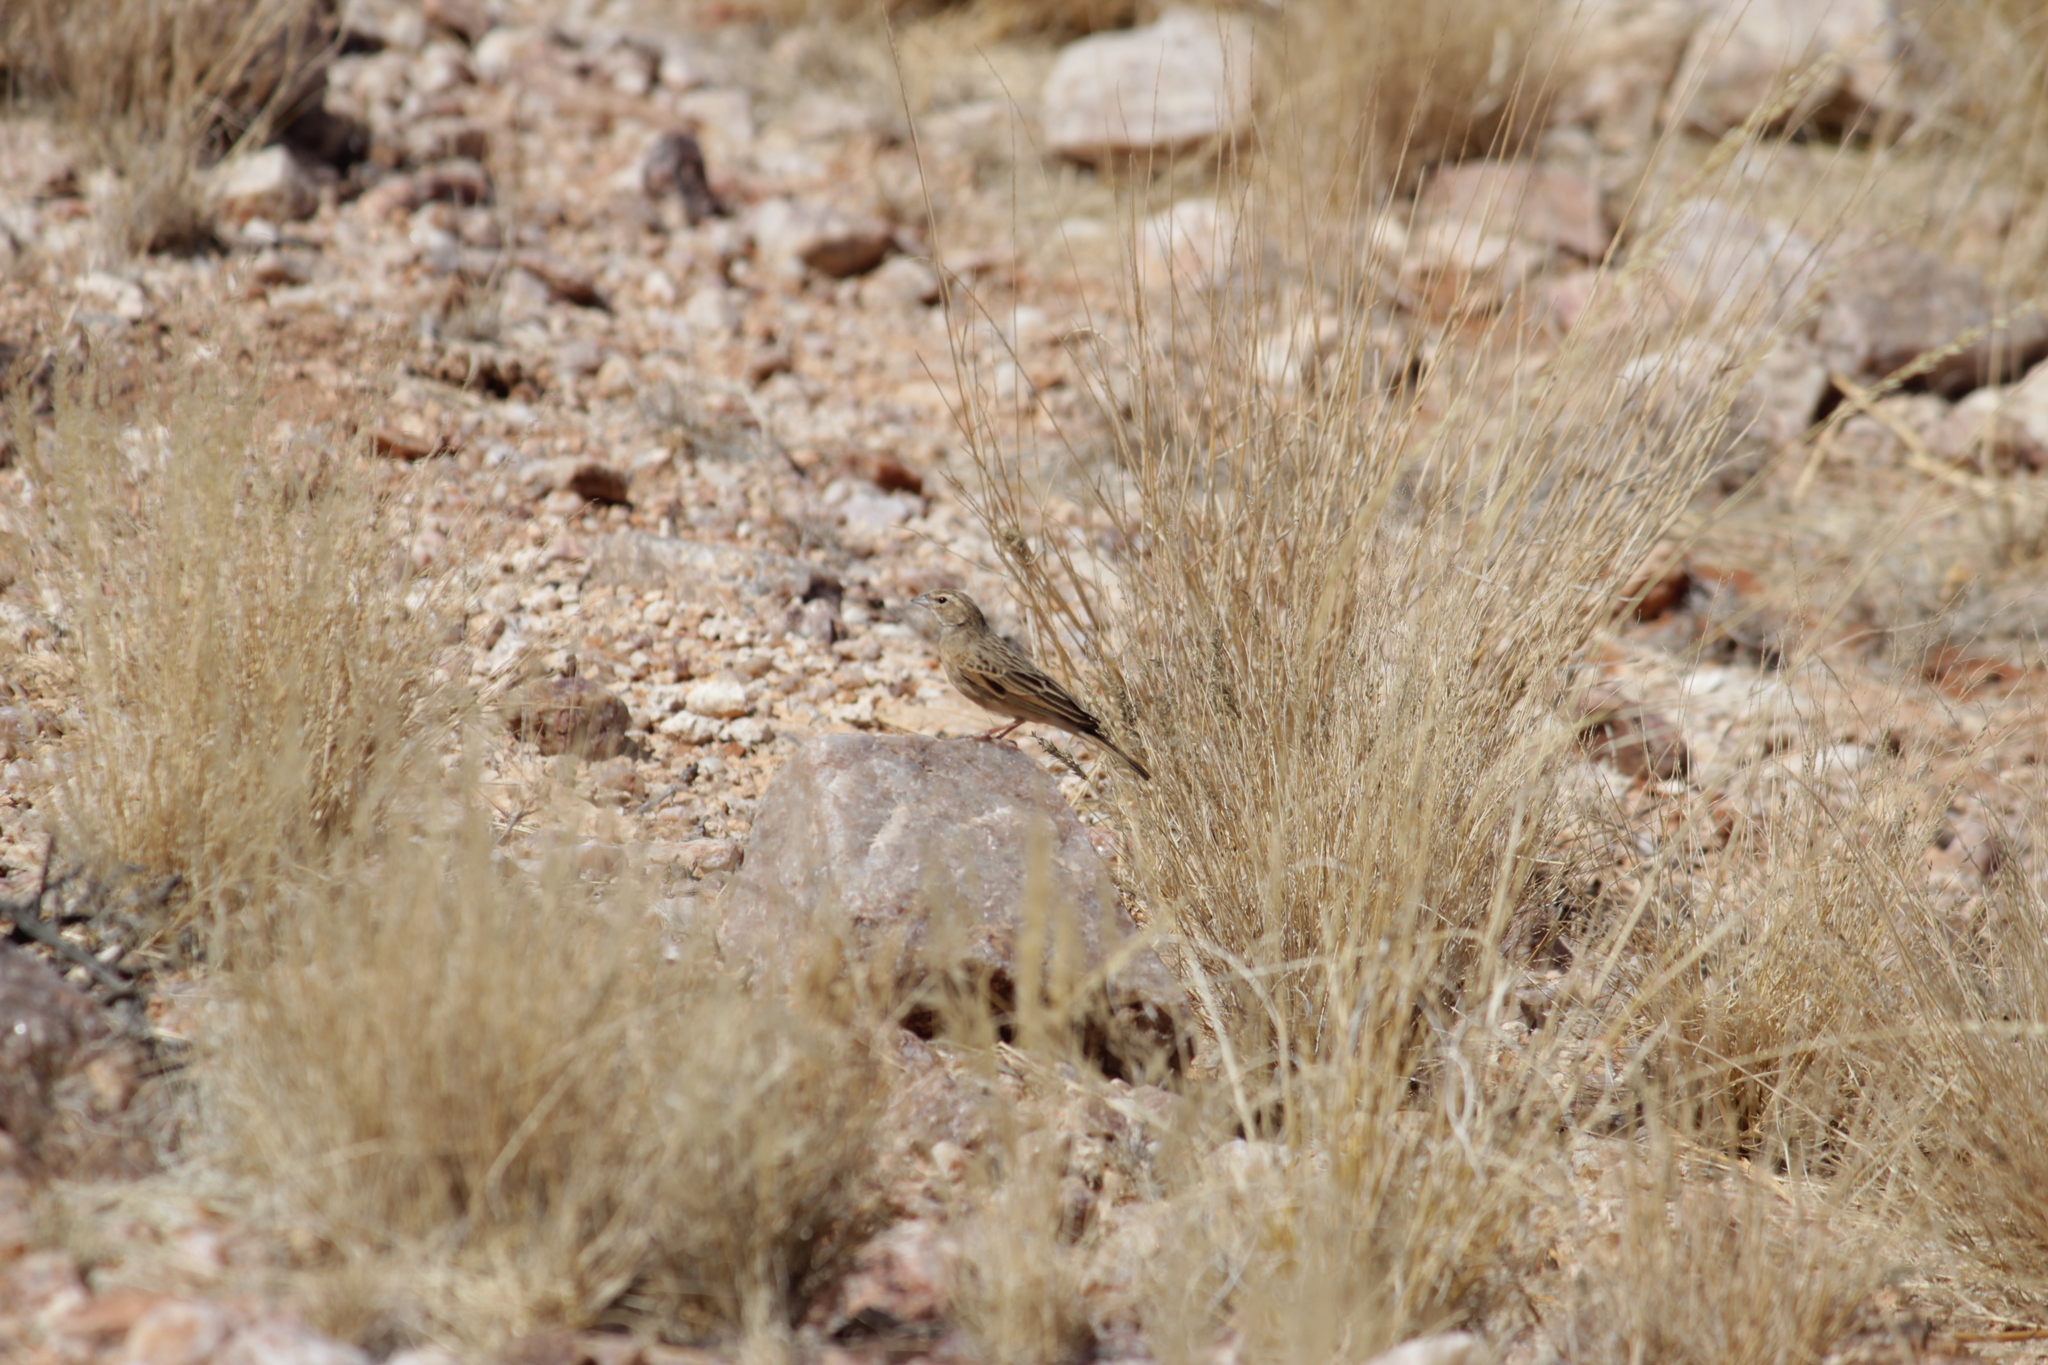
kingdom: Animalia
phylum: Chordata
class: Aves
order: Passeriformes
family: Emberizidae
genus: Emberiza
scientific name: Emberiza impetuani
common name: Lark-like bunting
